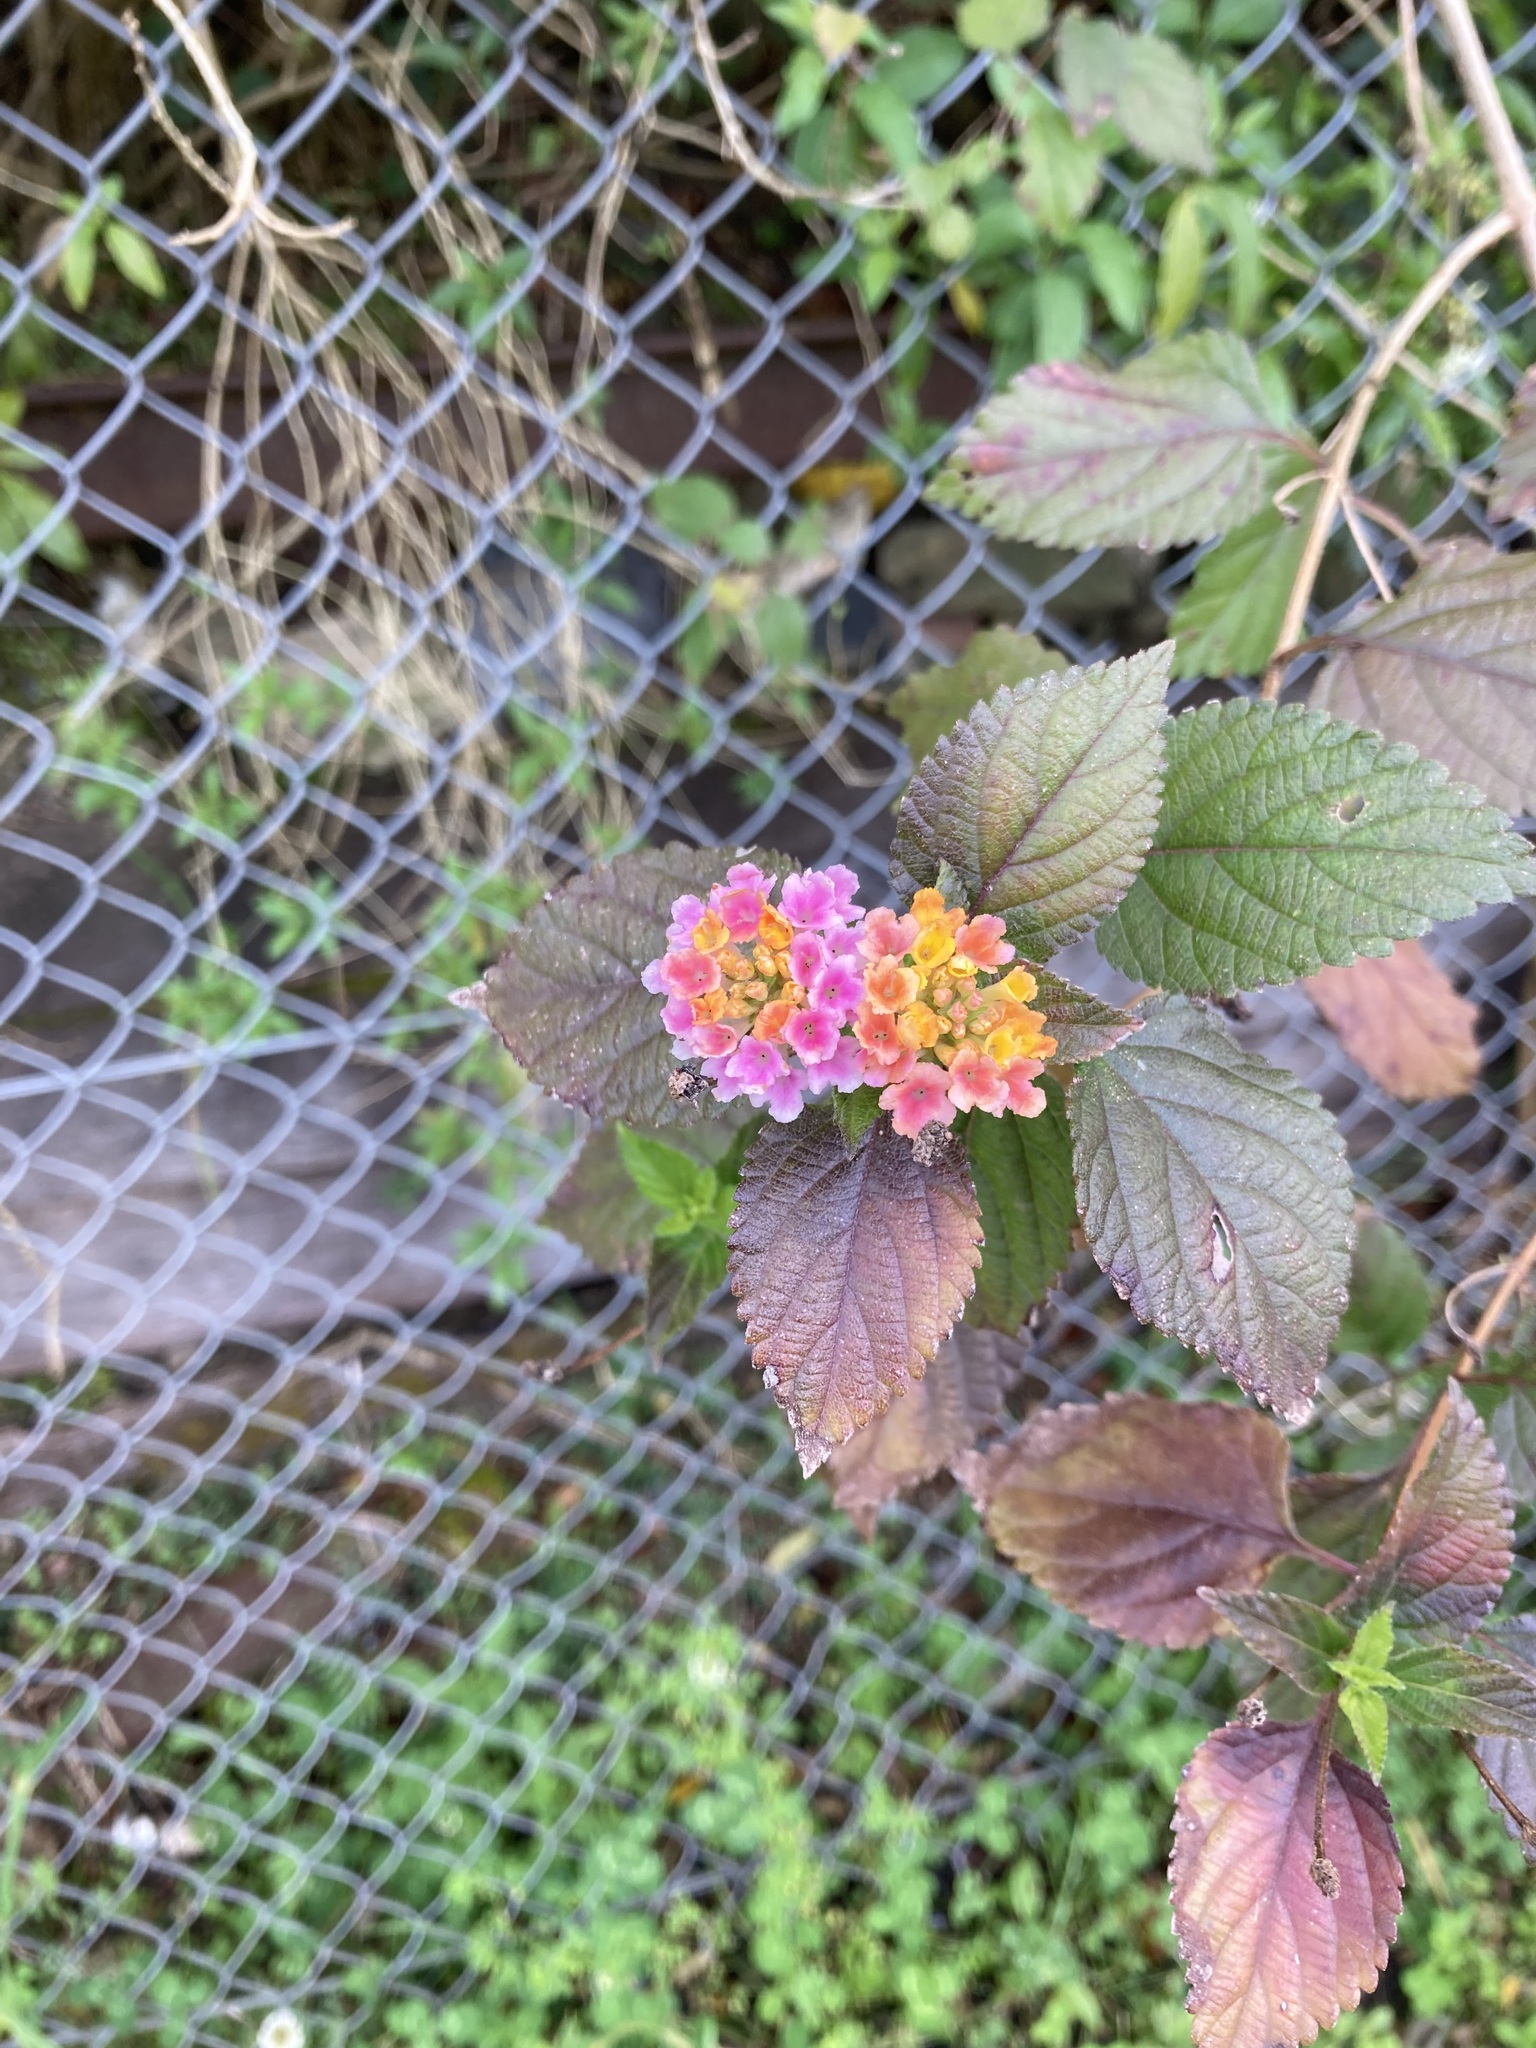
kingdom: Plantae
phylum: Tracheophyta
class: Magnoliopsida
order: Lamiales
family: Verbenaceae
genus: Lantana
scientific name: Lantana camara
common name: Lantana
